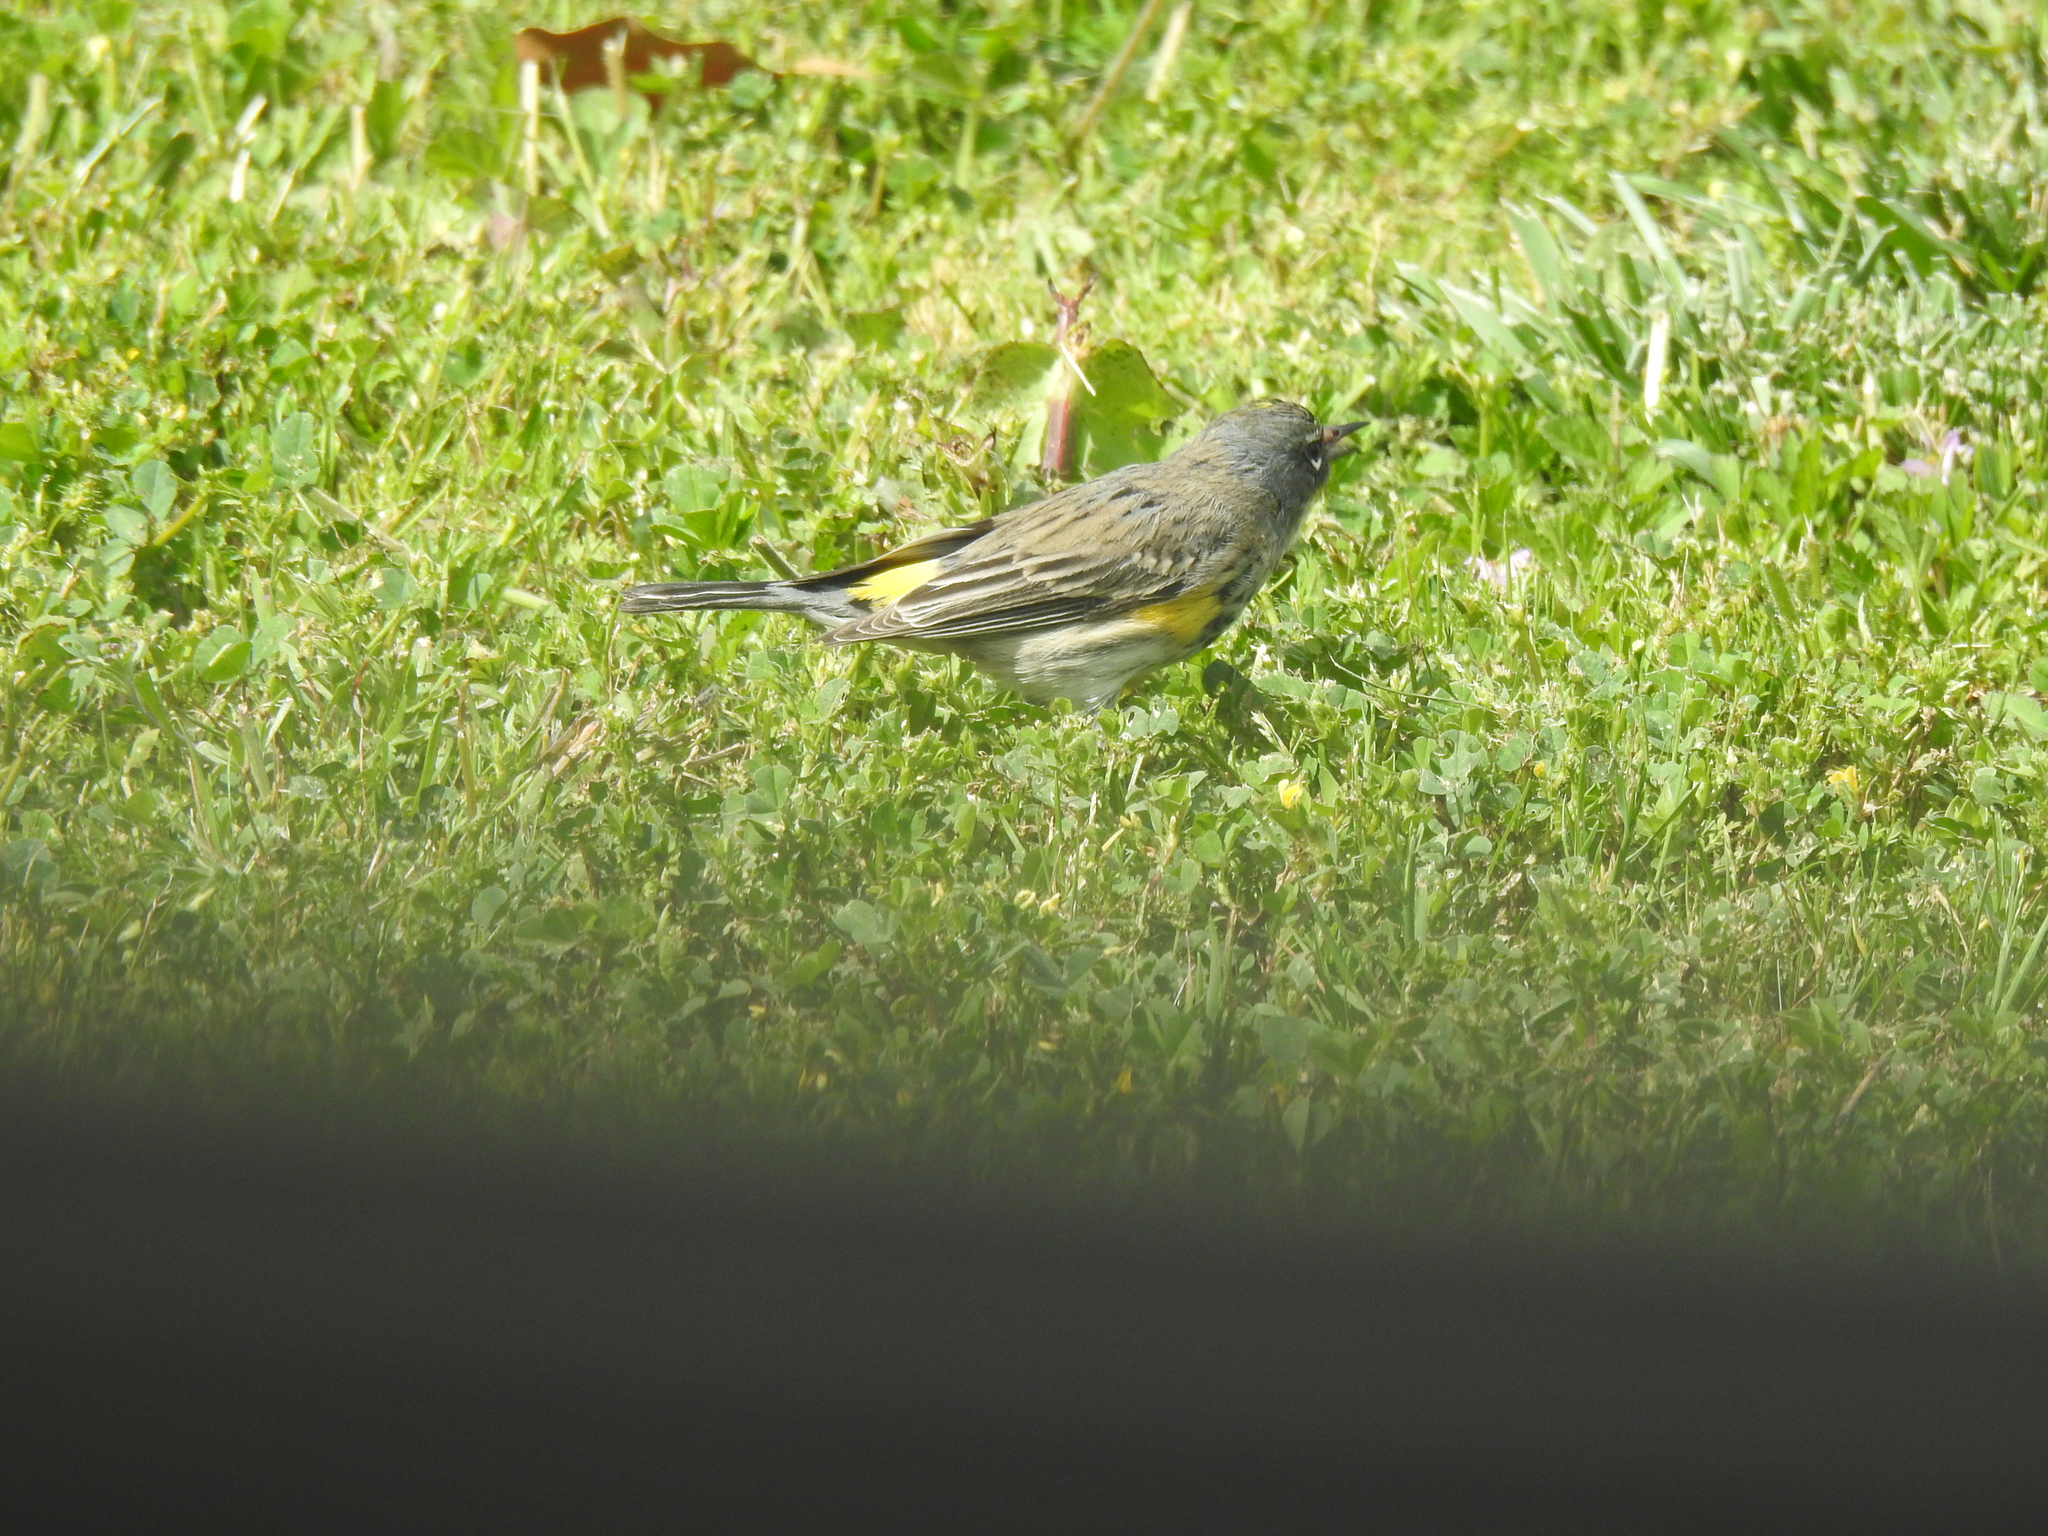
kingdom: Animalia
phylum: Chordata
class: Aves
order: Passeriformes
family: Parulidae
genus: Setophaga
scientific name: Setophaga coronata
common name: Myrtle warbler
